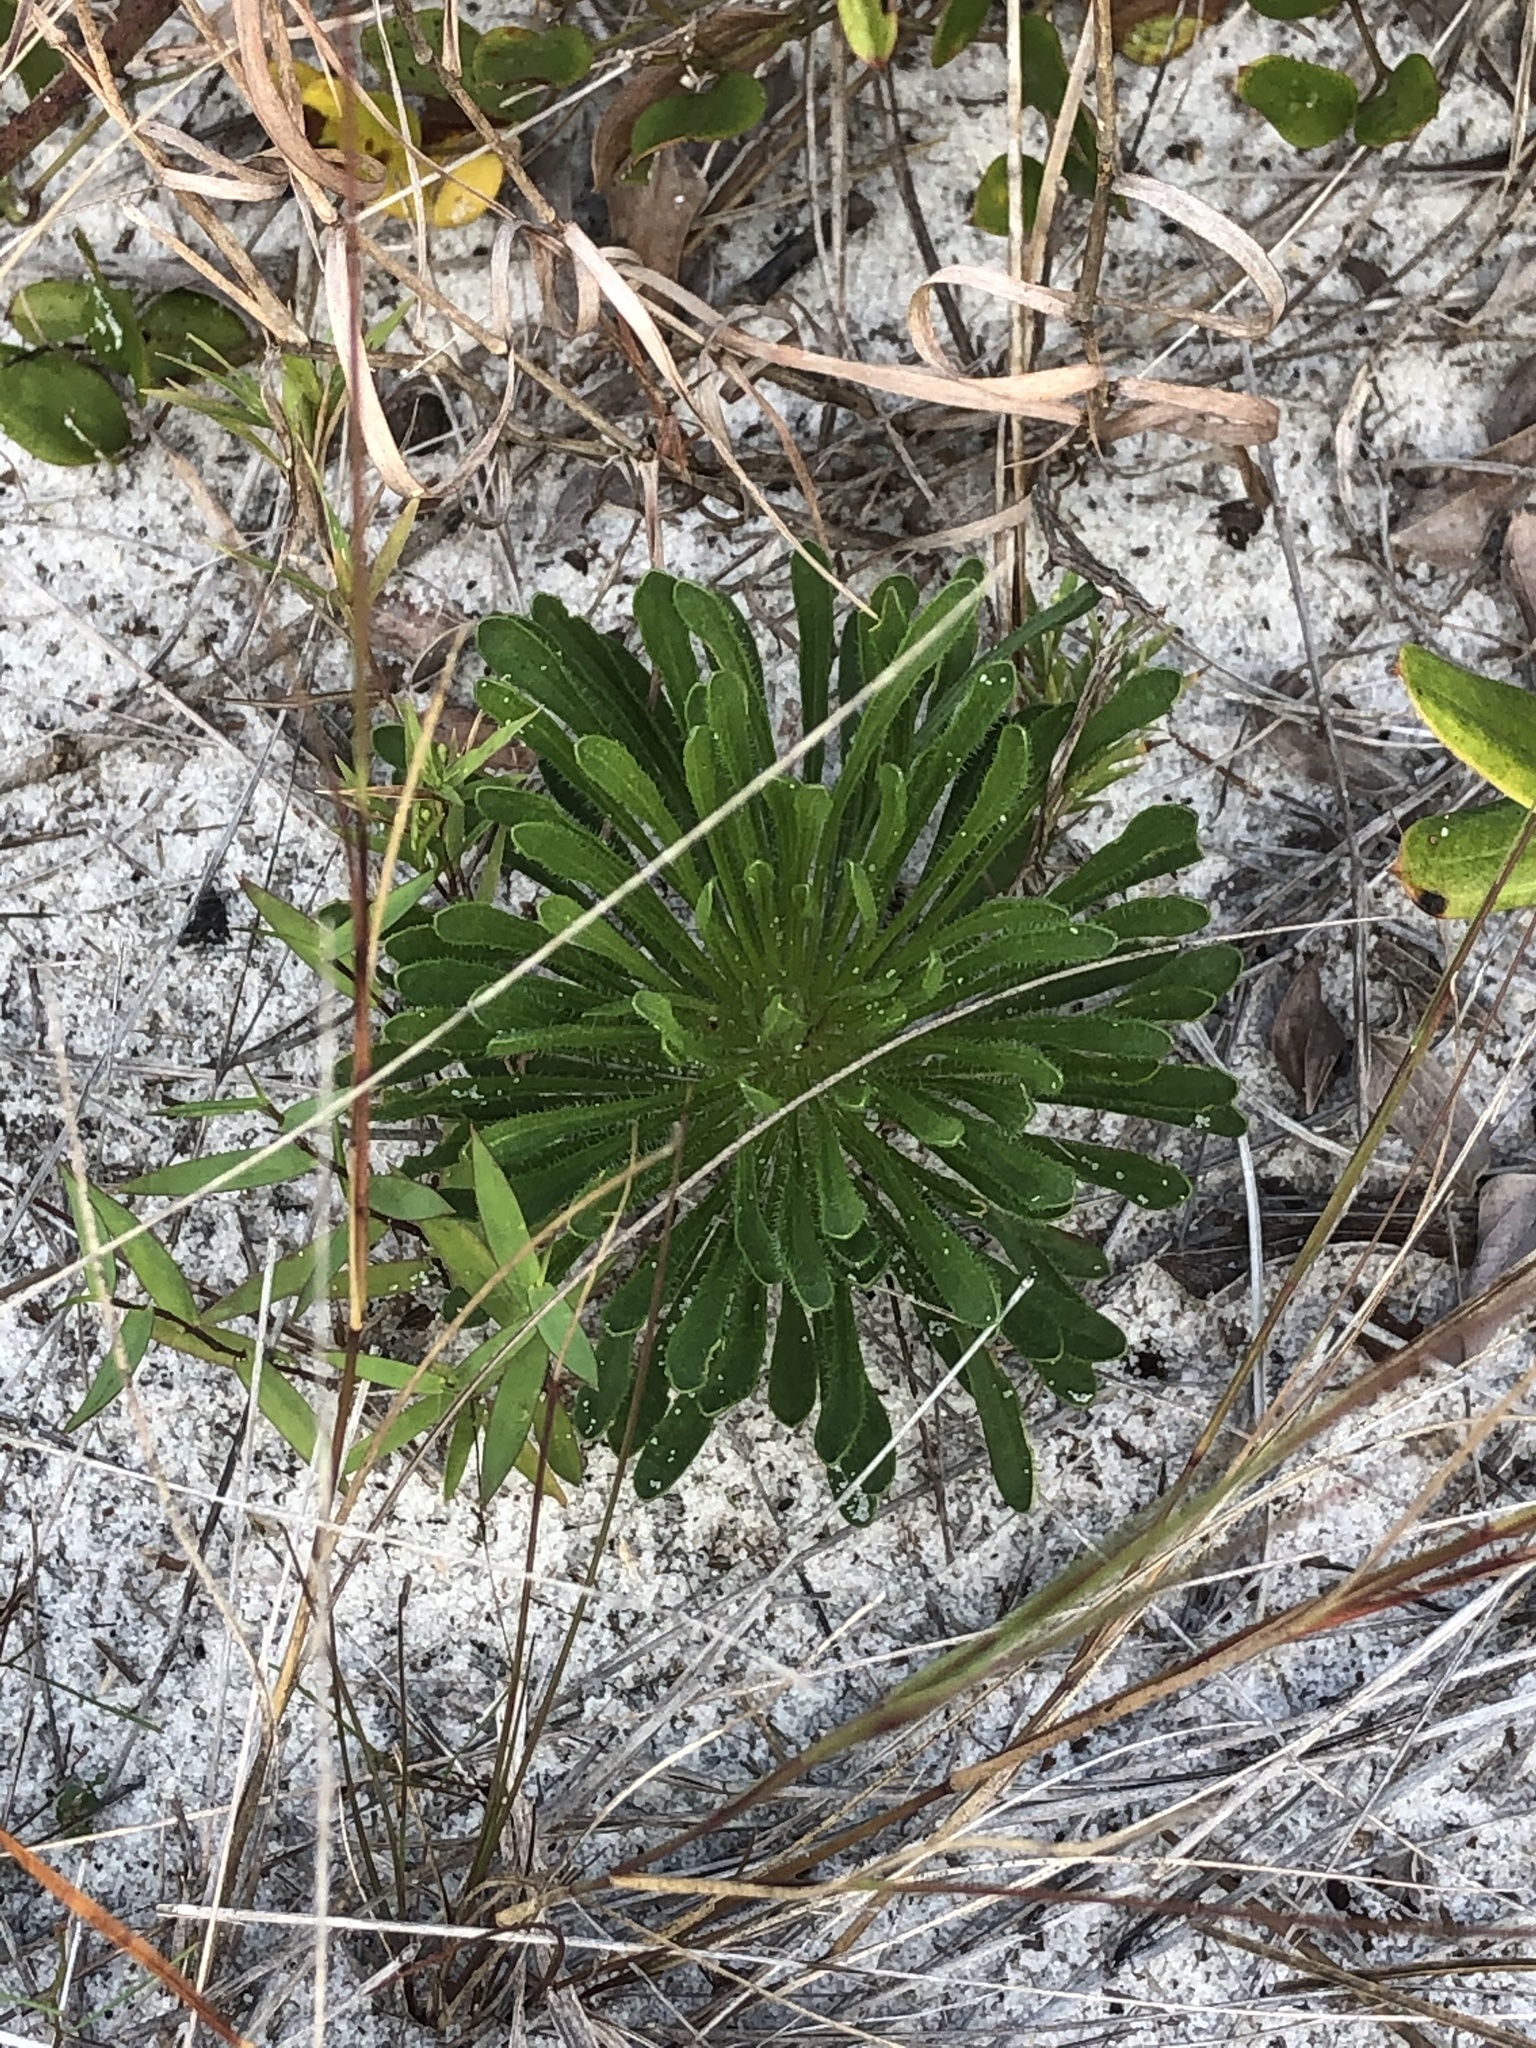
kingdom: Plantae
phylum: Tracheophyta
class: Magnoliopsida
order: Asterales
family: Asteraceae
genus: Balduina
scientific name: Balduina angustifolia
